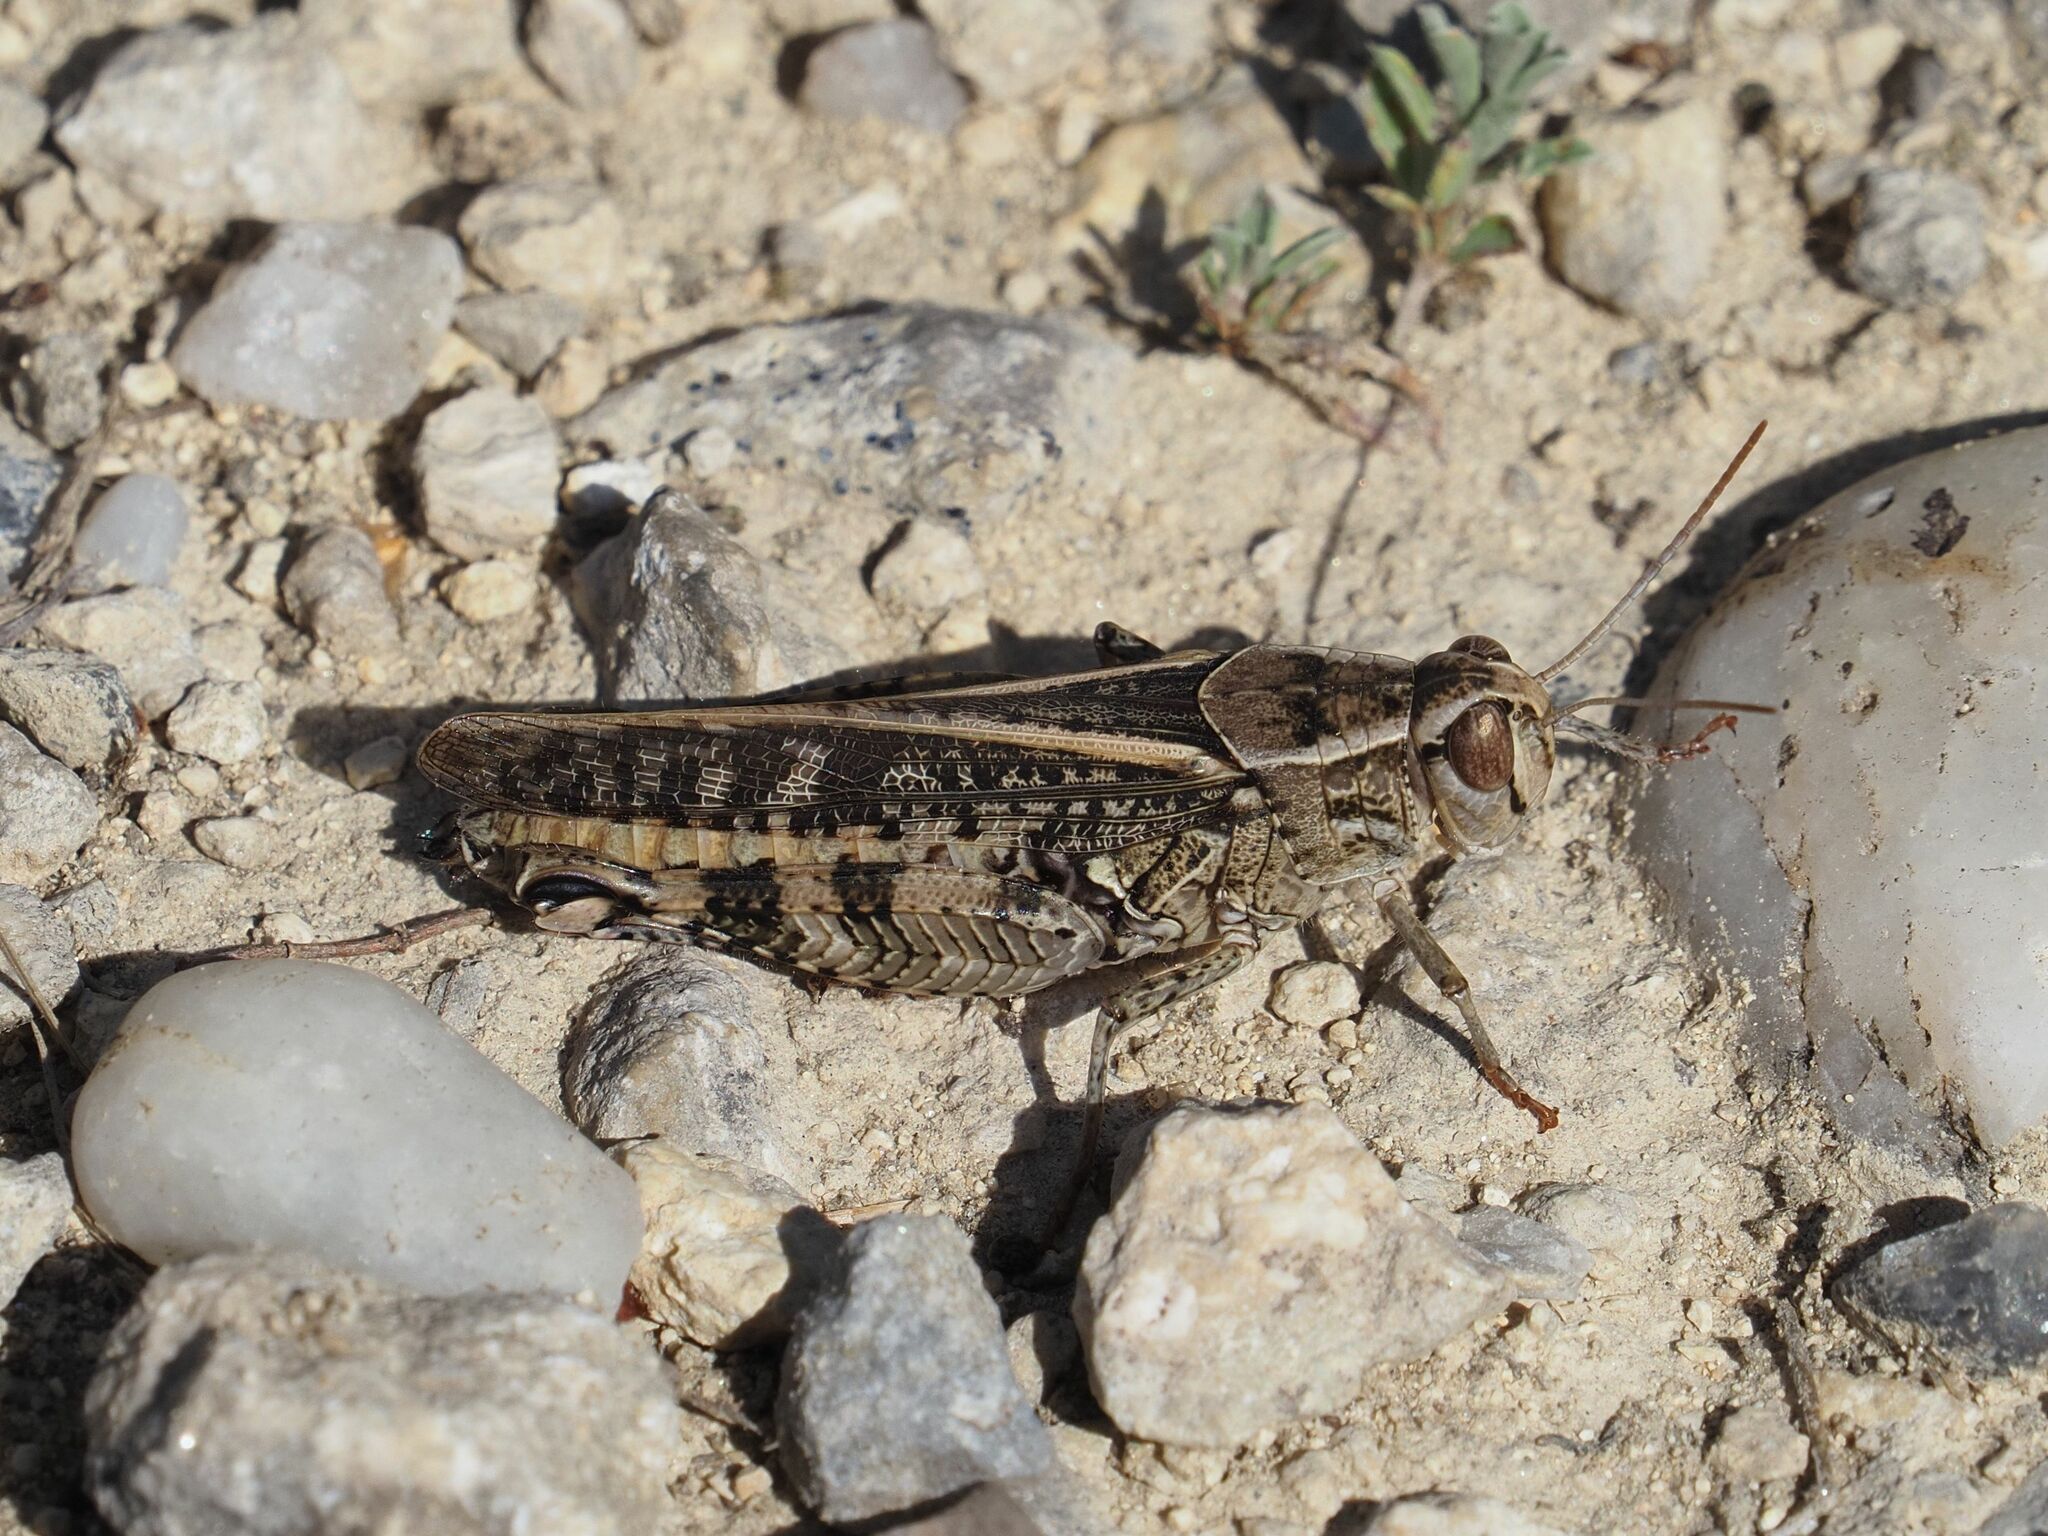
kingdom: Animalia
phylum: Arthropoda
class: Insecta
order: Orthoptera
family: Acrididae
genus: Calliptamus
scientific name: Calliptamus italicus
